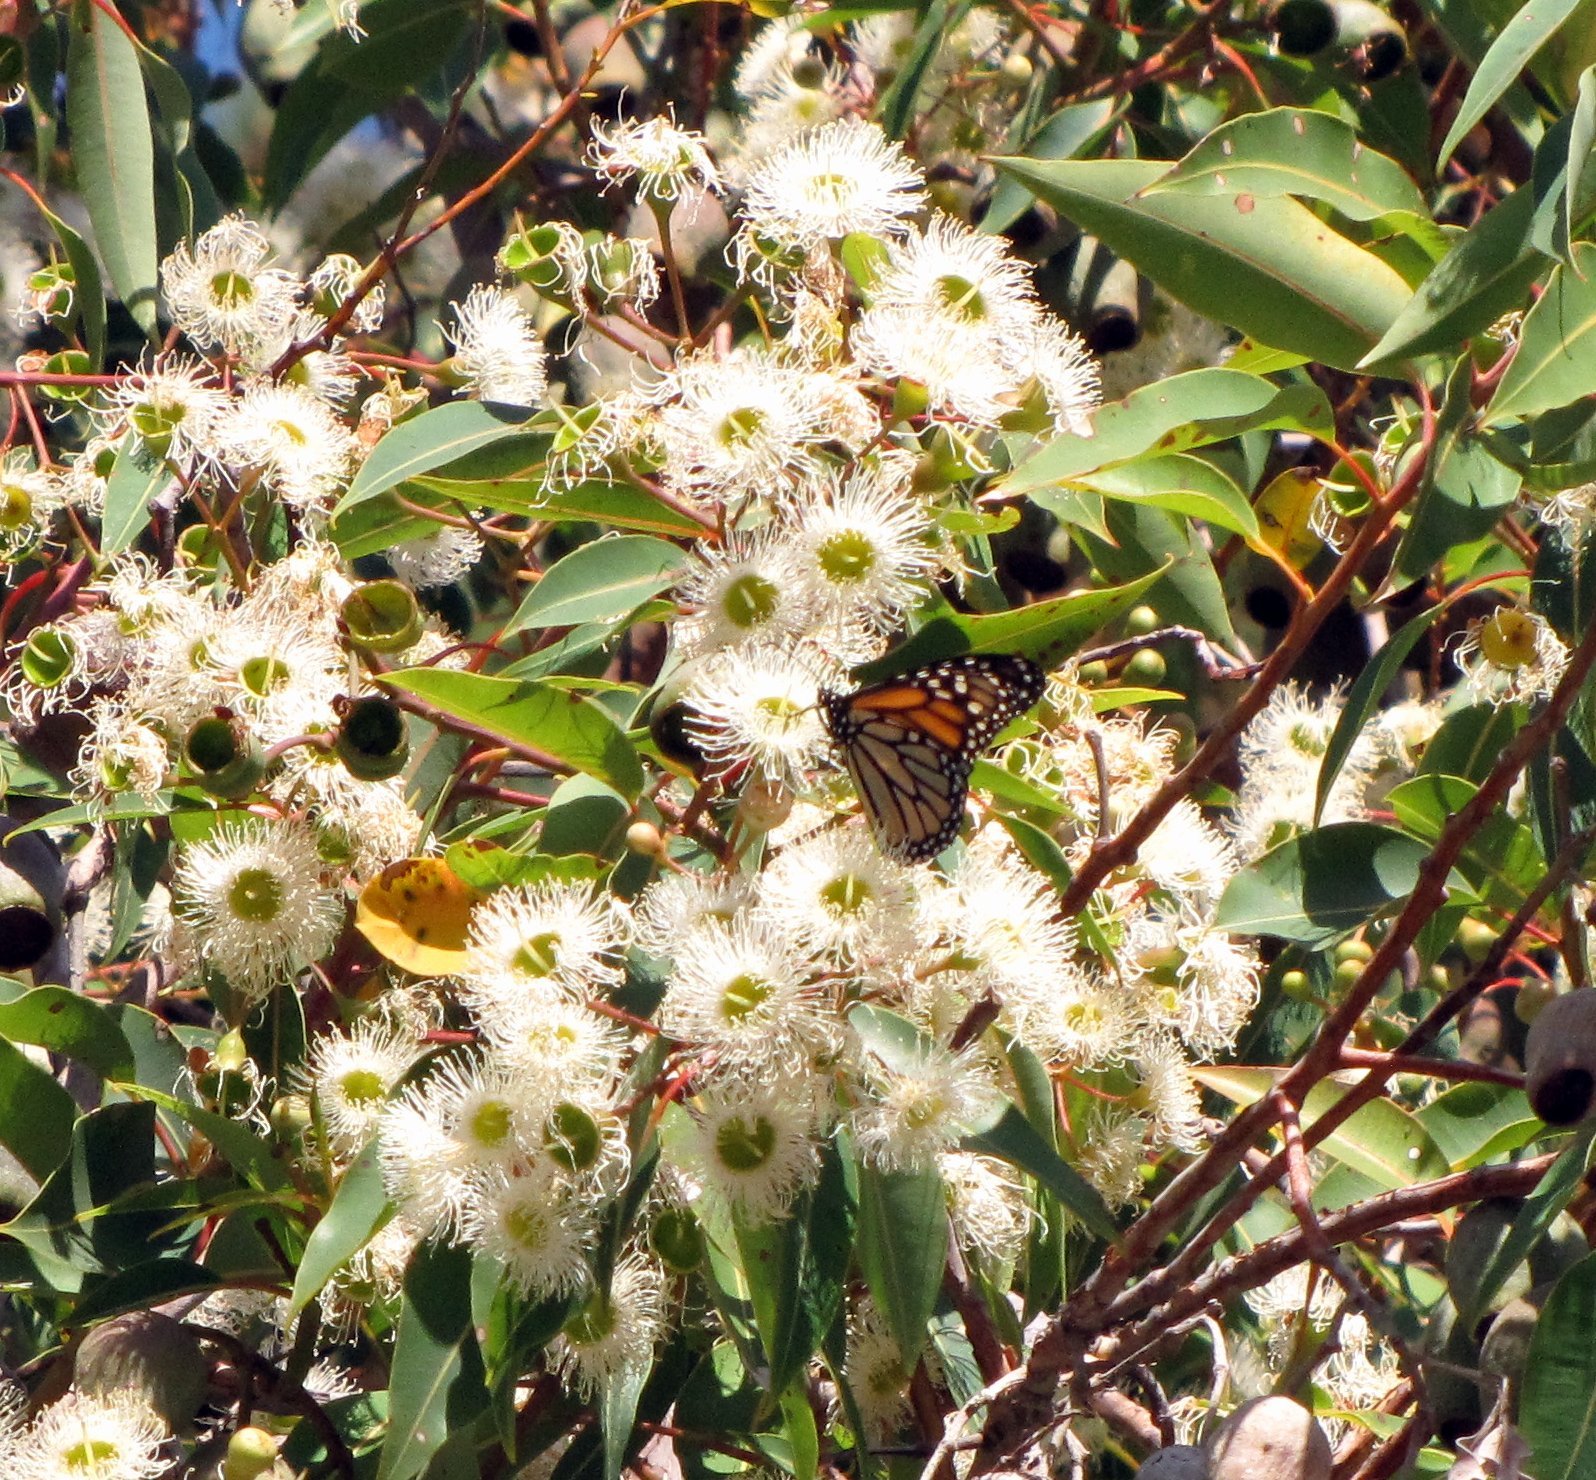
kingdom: Animalia
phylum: Arthropoda
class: Insecta
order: Lepidoptera
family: Nymphalidae
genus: Danaus
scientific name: Danaus plexippus
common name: Monarch
